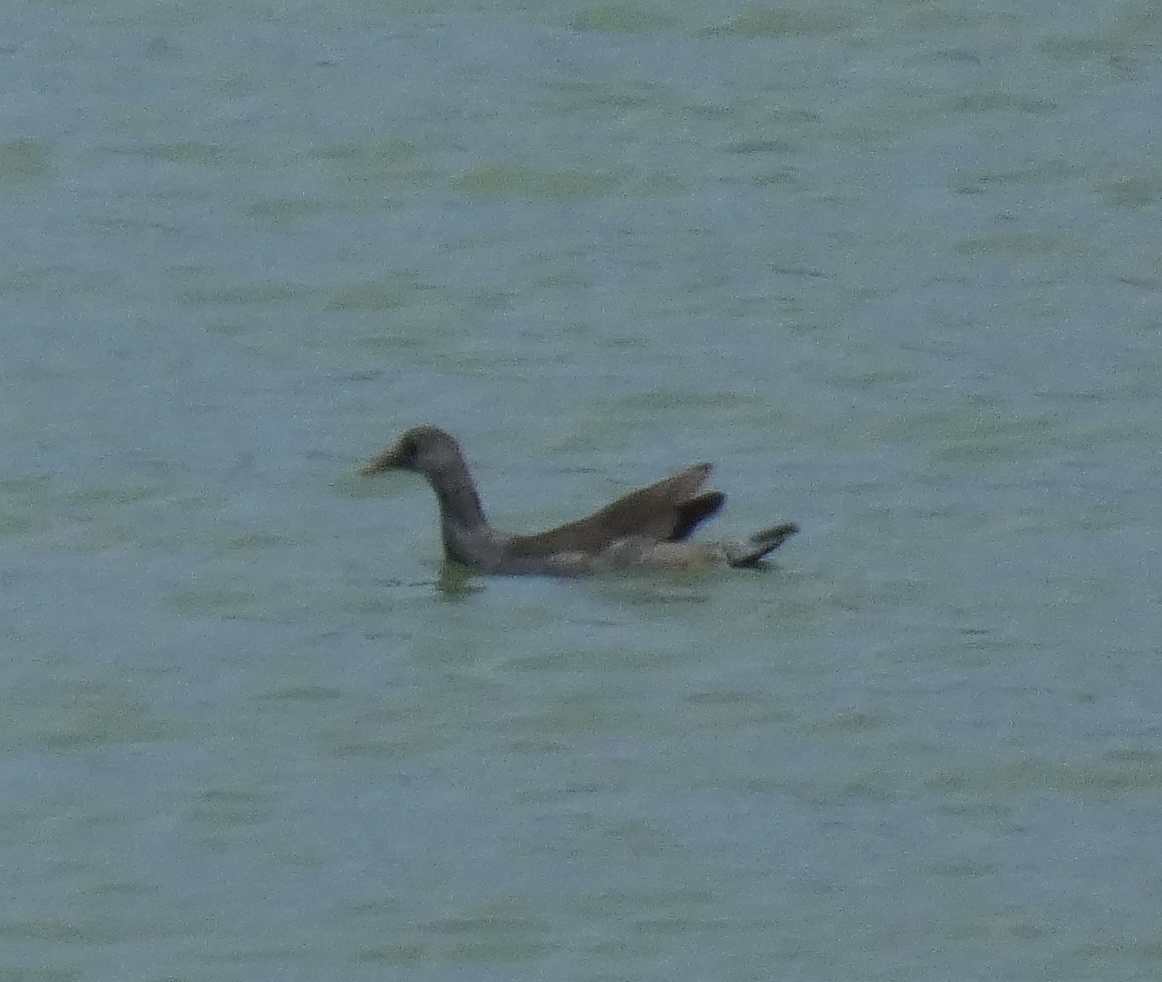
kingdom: Animalia
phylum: Chordata
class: Aves
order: Podicipediformes
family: Podicipedidae
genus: Podilymbus
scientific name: Podilymbus podiceps
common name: Pied-billed grebe
